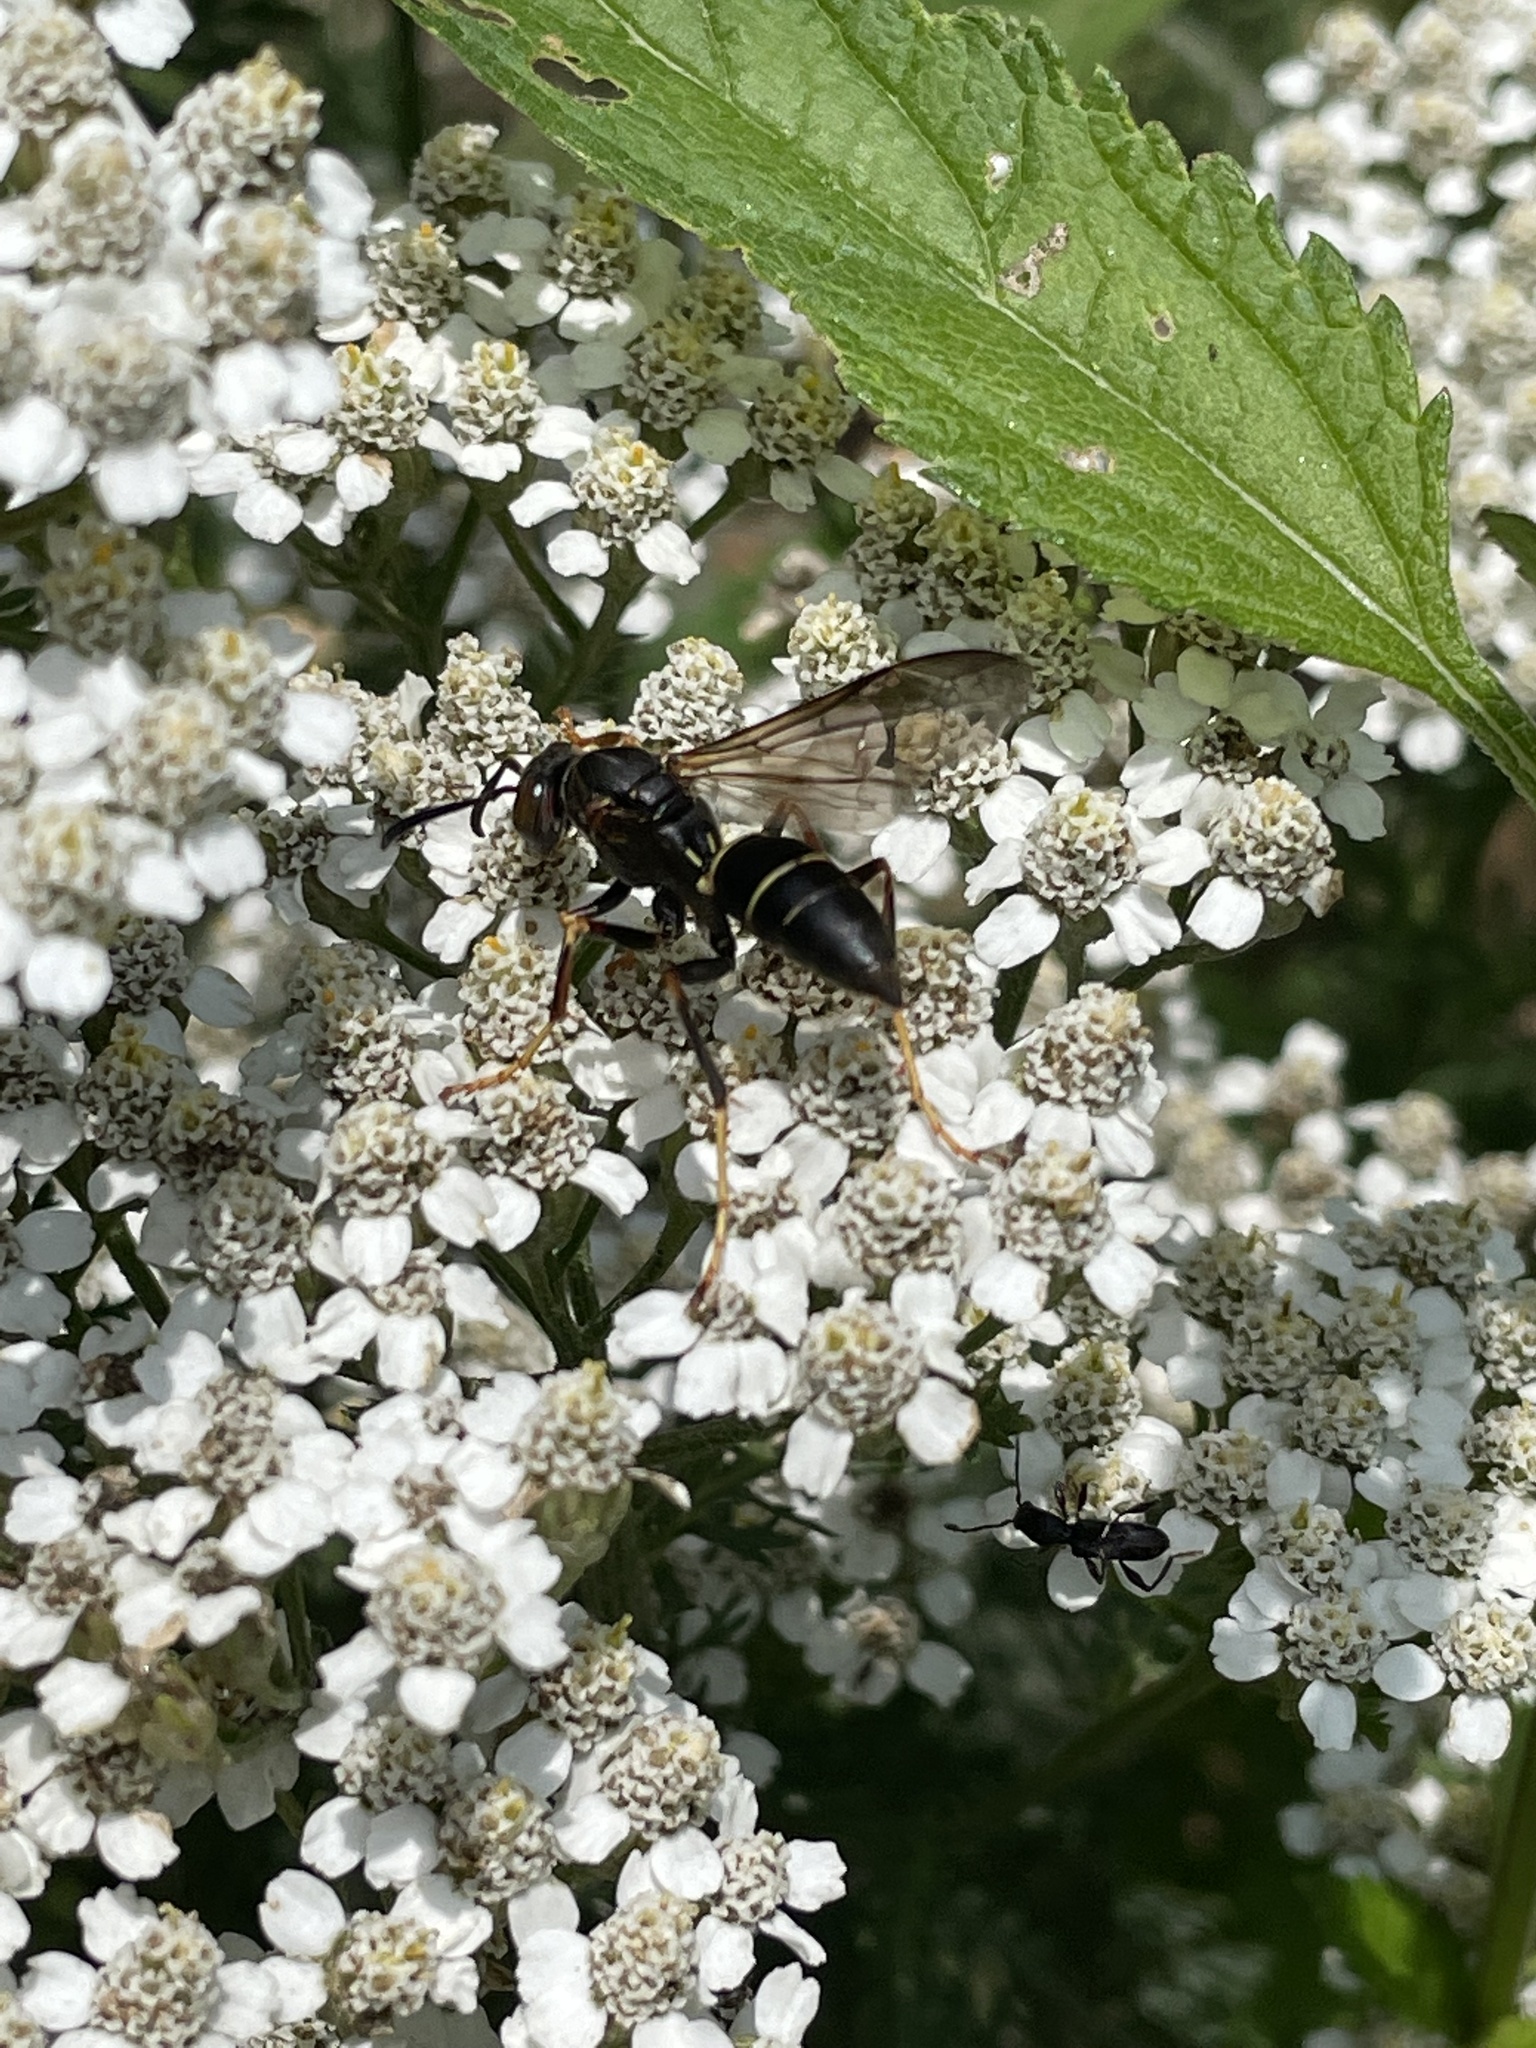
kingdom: Animalia
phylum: Arthropoda
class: Insecta
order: Hymenoptera
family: Eumenidae
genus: Polistes
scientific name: Polistes fuscatus
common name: Dark paper wasp
